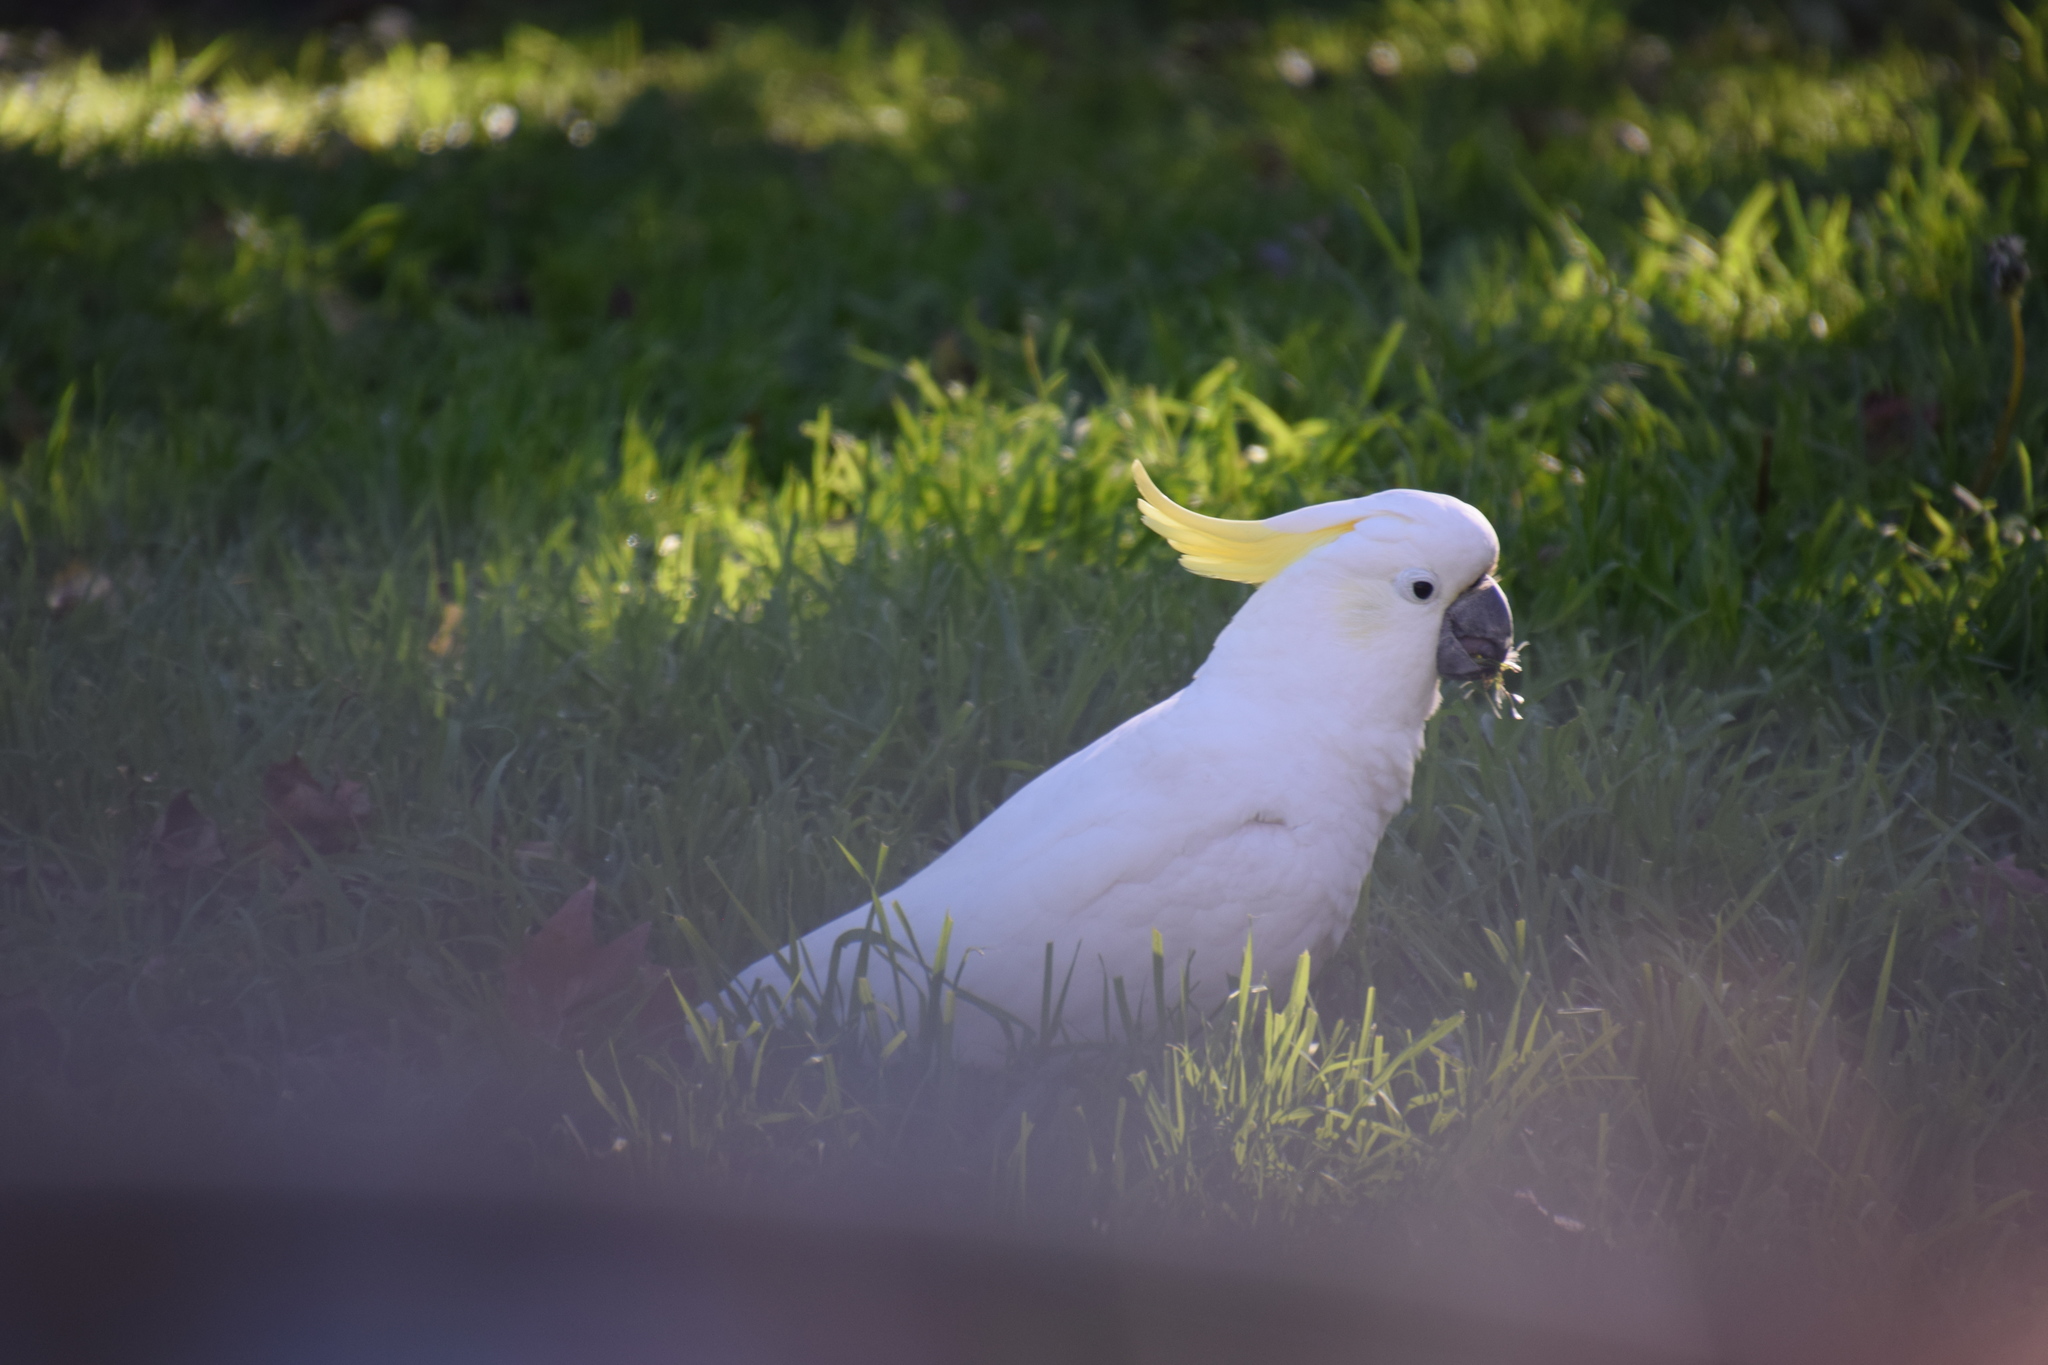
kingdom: Animalia
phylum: Chordata
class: Aves
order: Psittaciformes
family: Psittacidae
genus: Cacatua
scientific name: Cacatua galerita
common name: Sulphur-crested cockatoo
